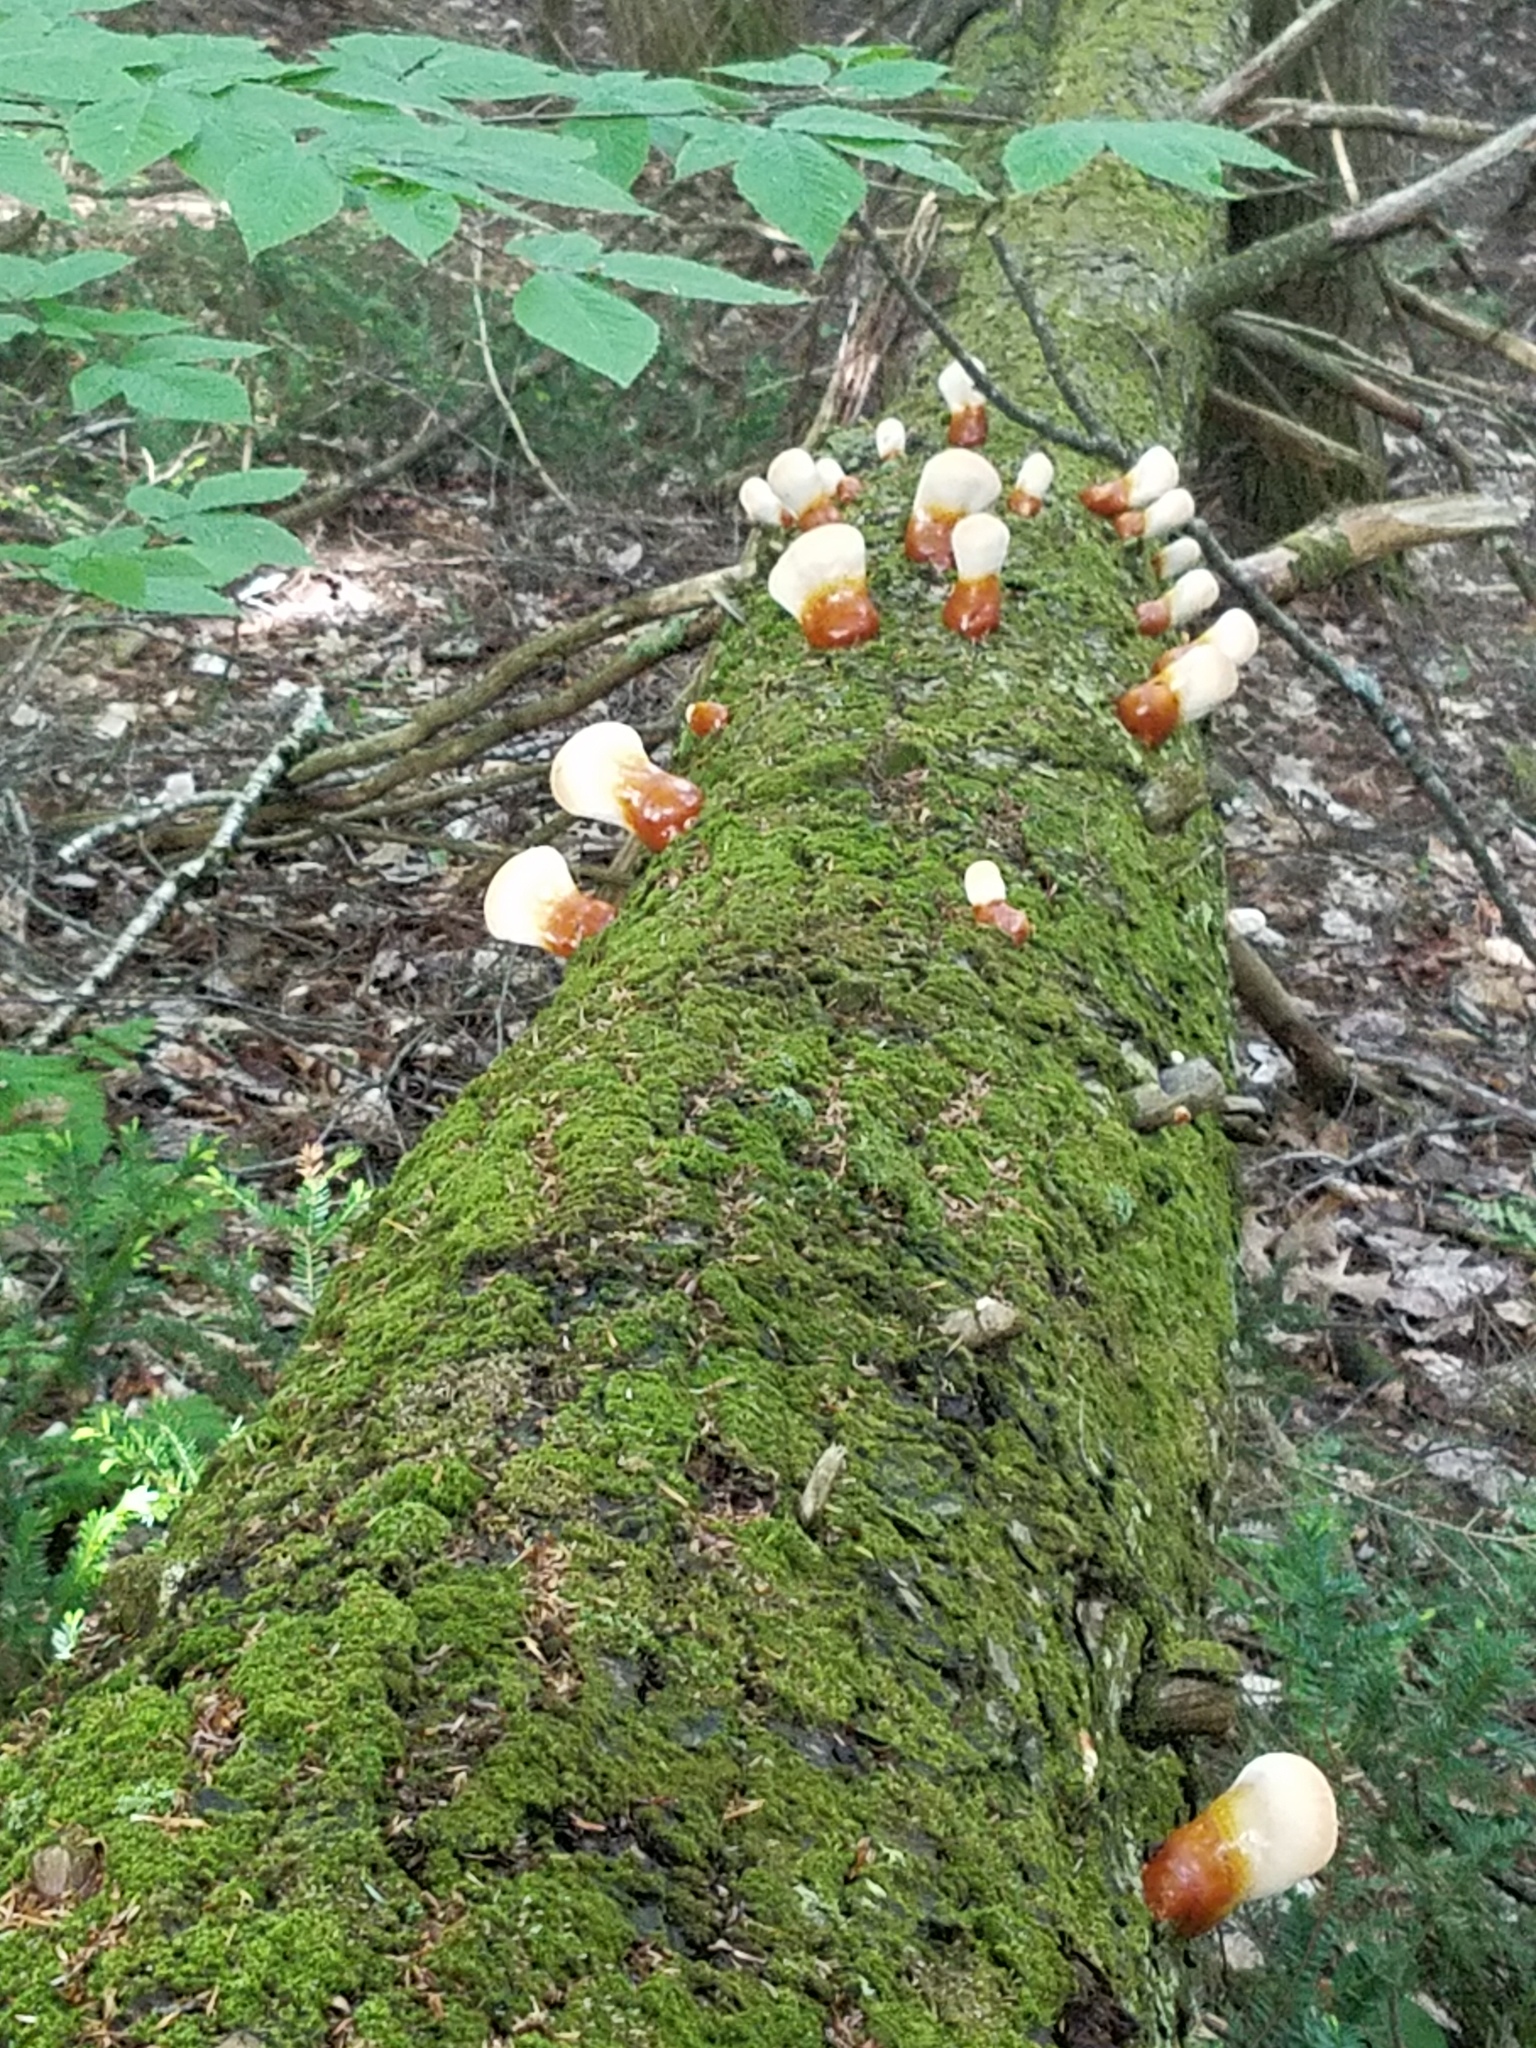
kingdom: Fungi
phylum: Basidiomycota
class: Agaricomycetes
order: Polyporales
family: Polyporaceae
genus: Ganoderma
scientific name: Ganoderma tsugae
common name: Hemlock varnish shelf
